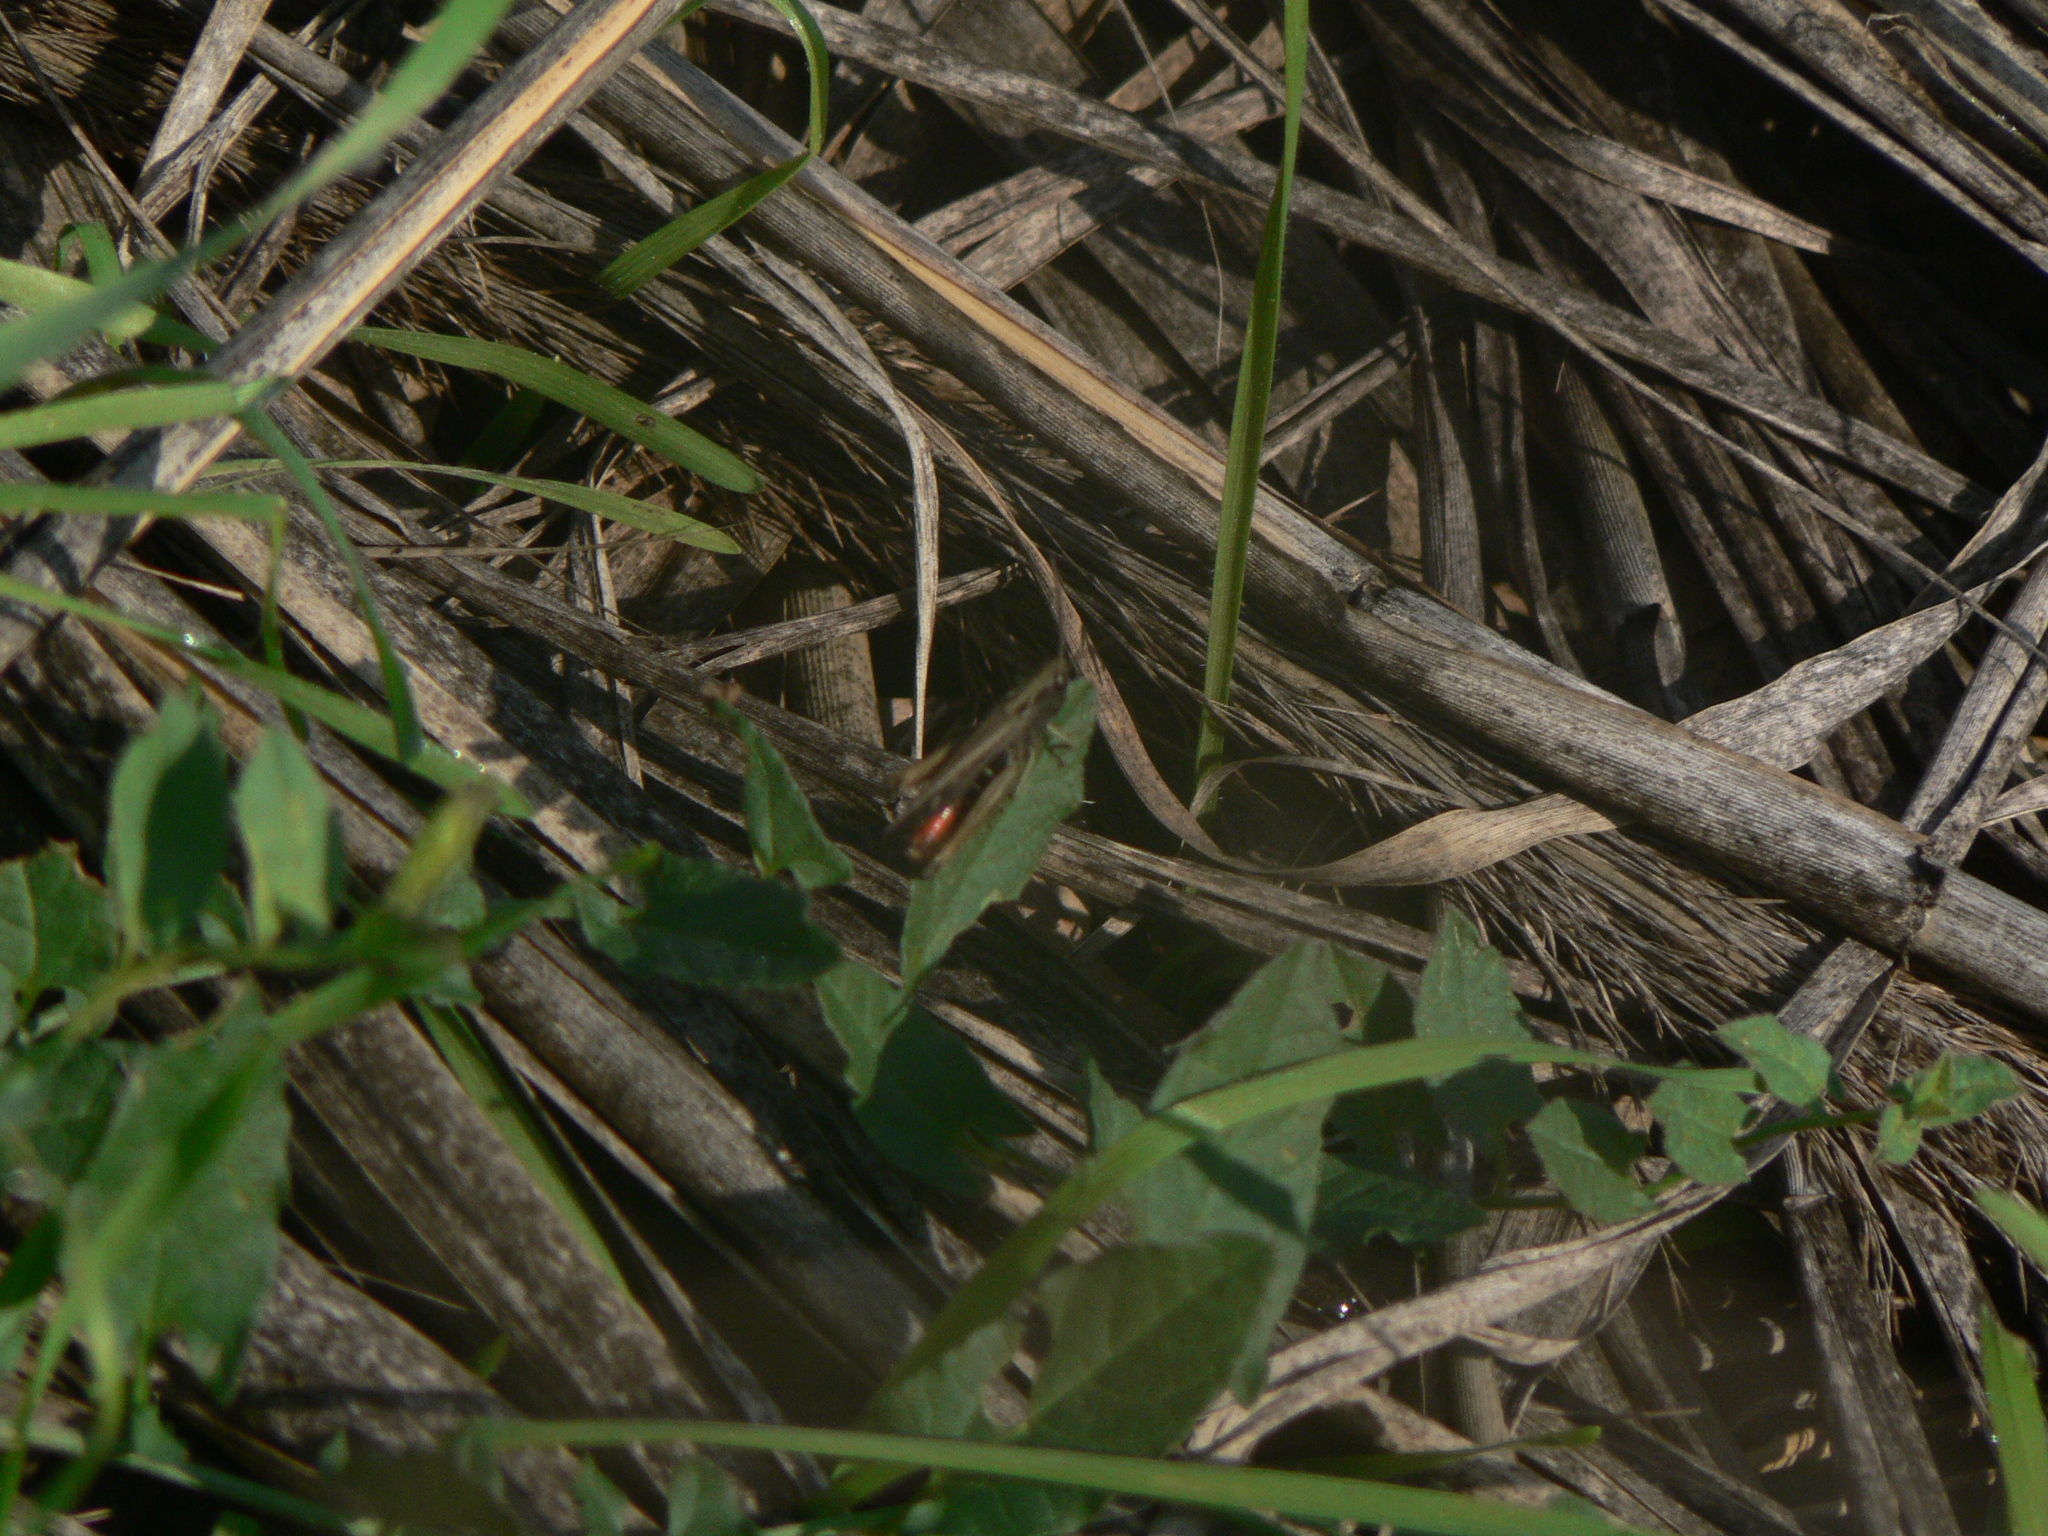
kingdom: Animalia
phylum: Arthropoda
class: Insecta
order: Orthoptera
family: Acrididae
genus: Omocestus
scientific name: Omocestus rufipes
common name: Woodland grasshopper
